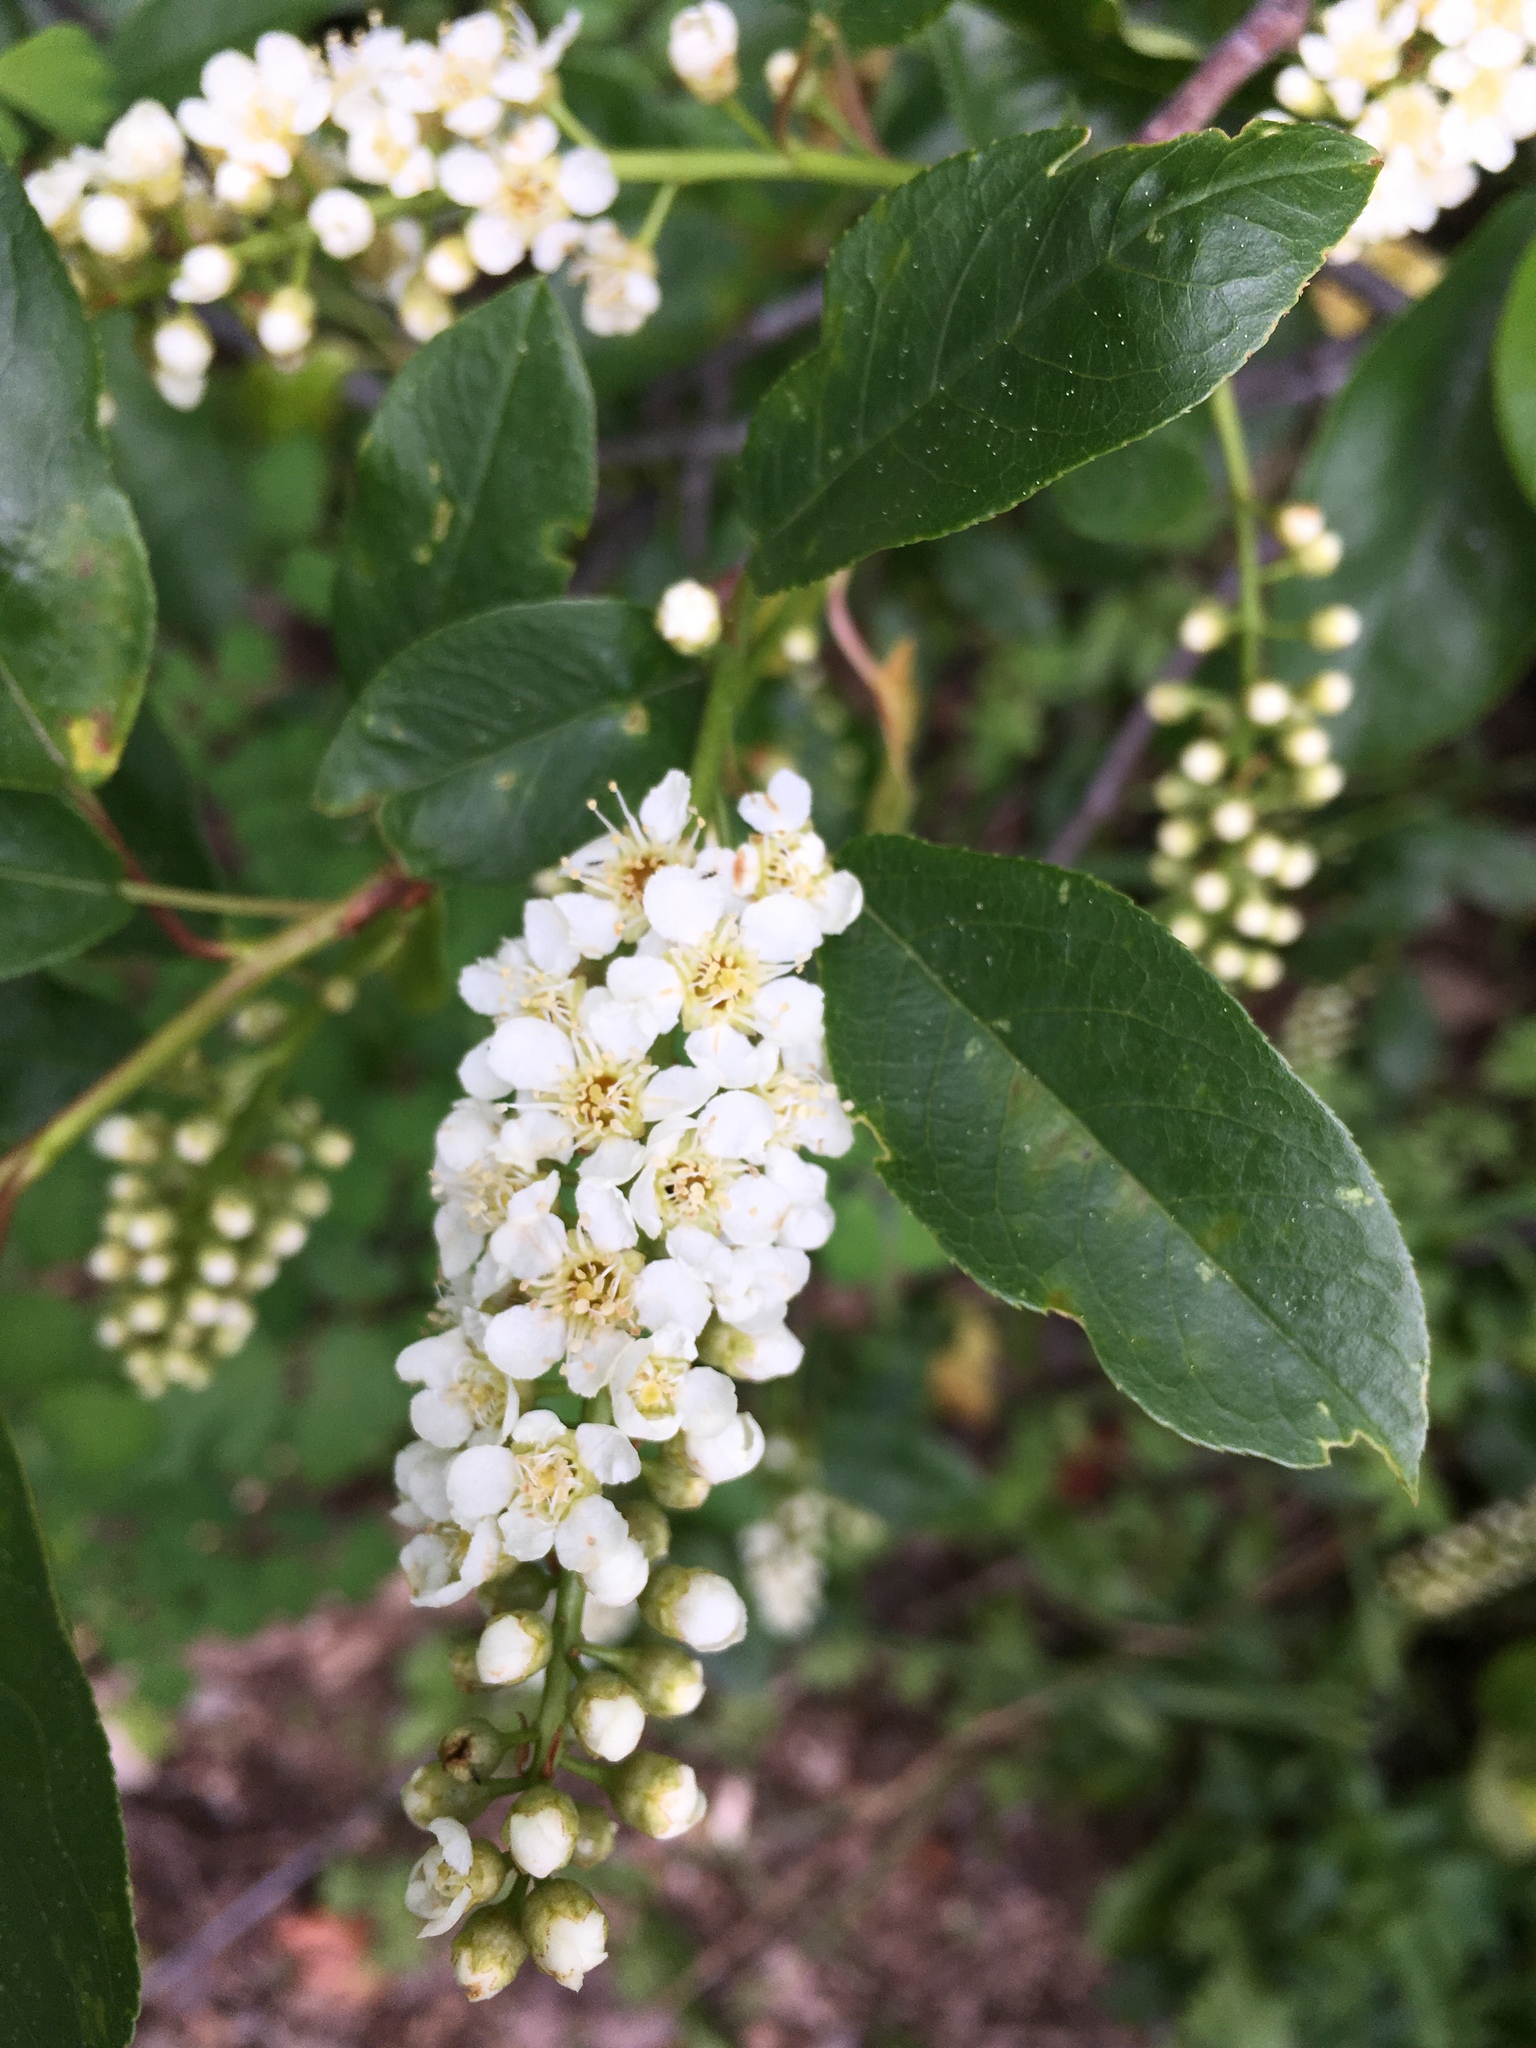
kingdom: Plantae
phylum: Tracheophyta
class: Magnoliopsida
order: Rosales
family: Rosaceae
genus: Prunus
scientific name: Prunus virginiana
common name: Chokecherry
